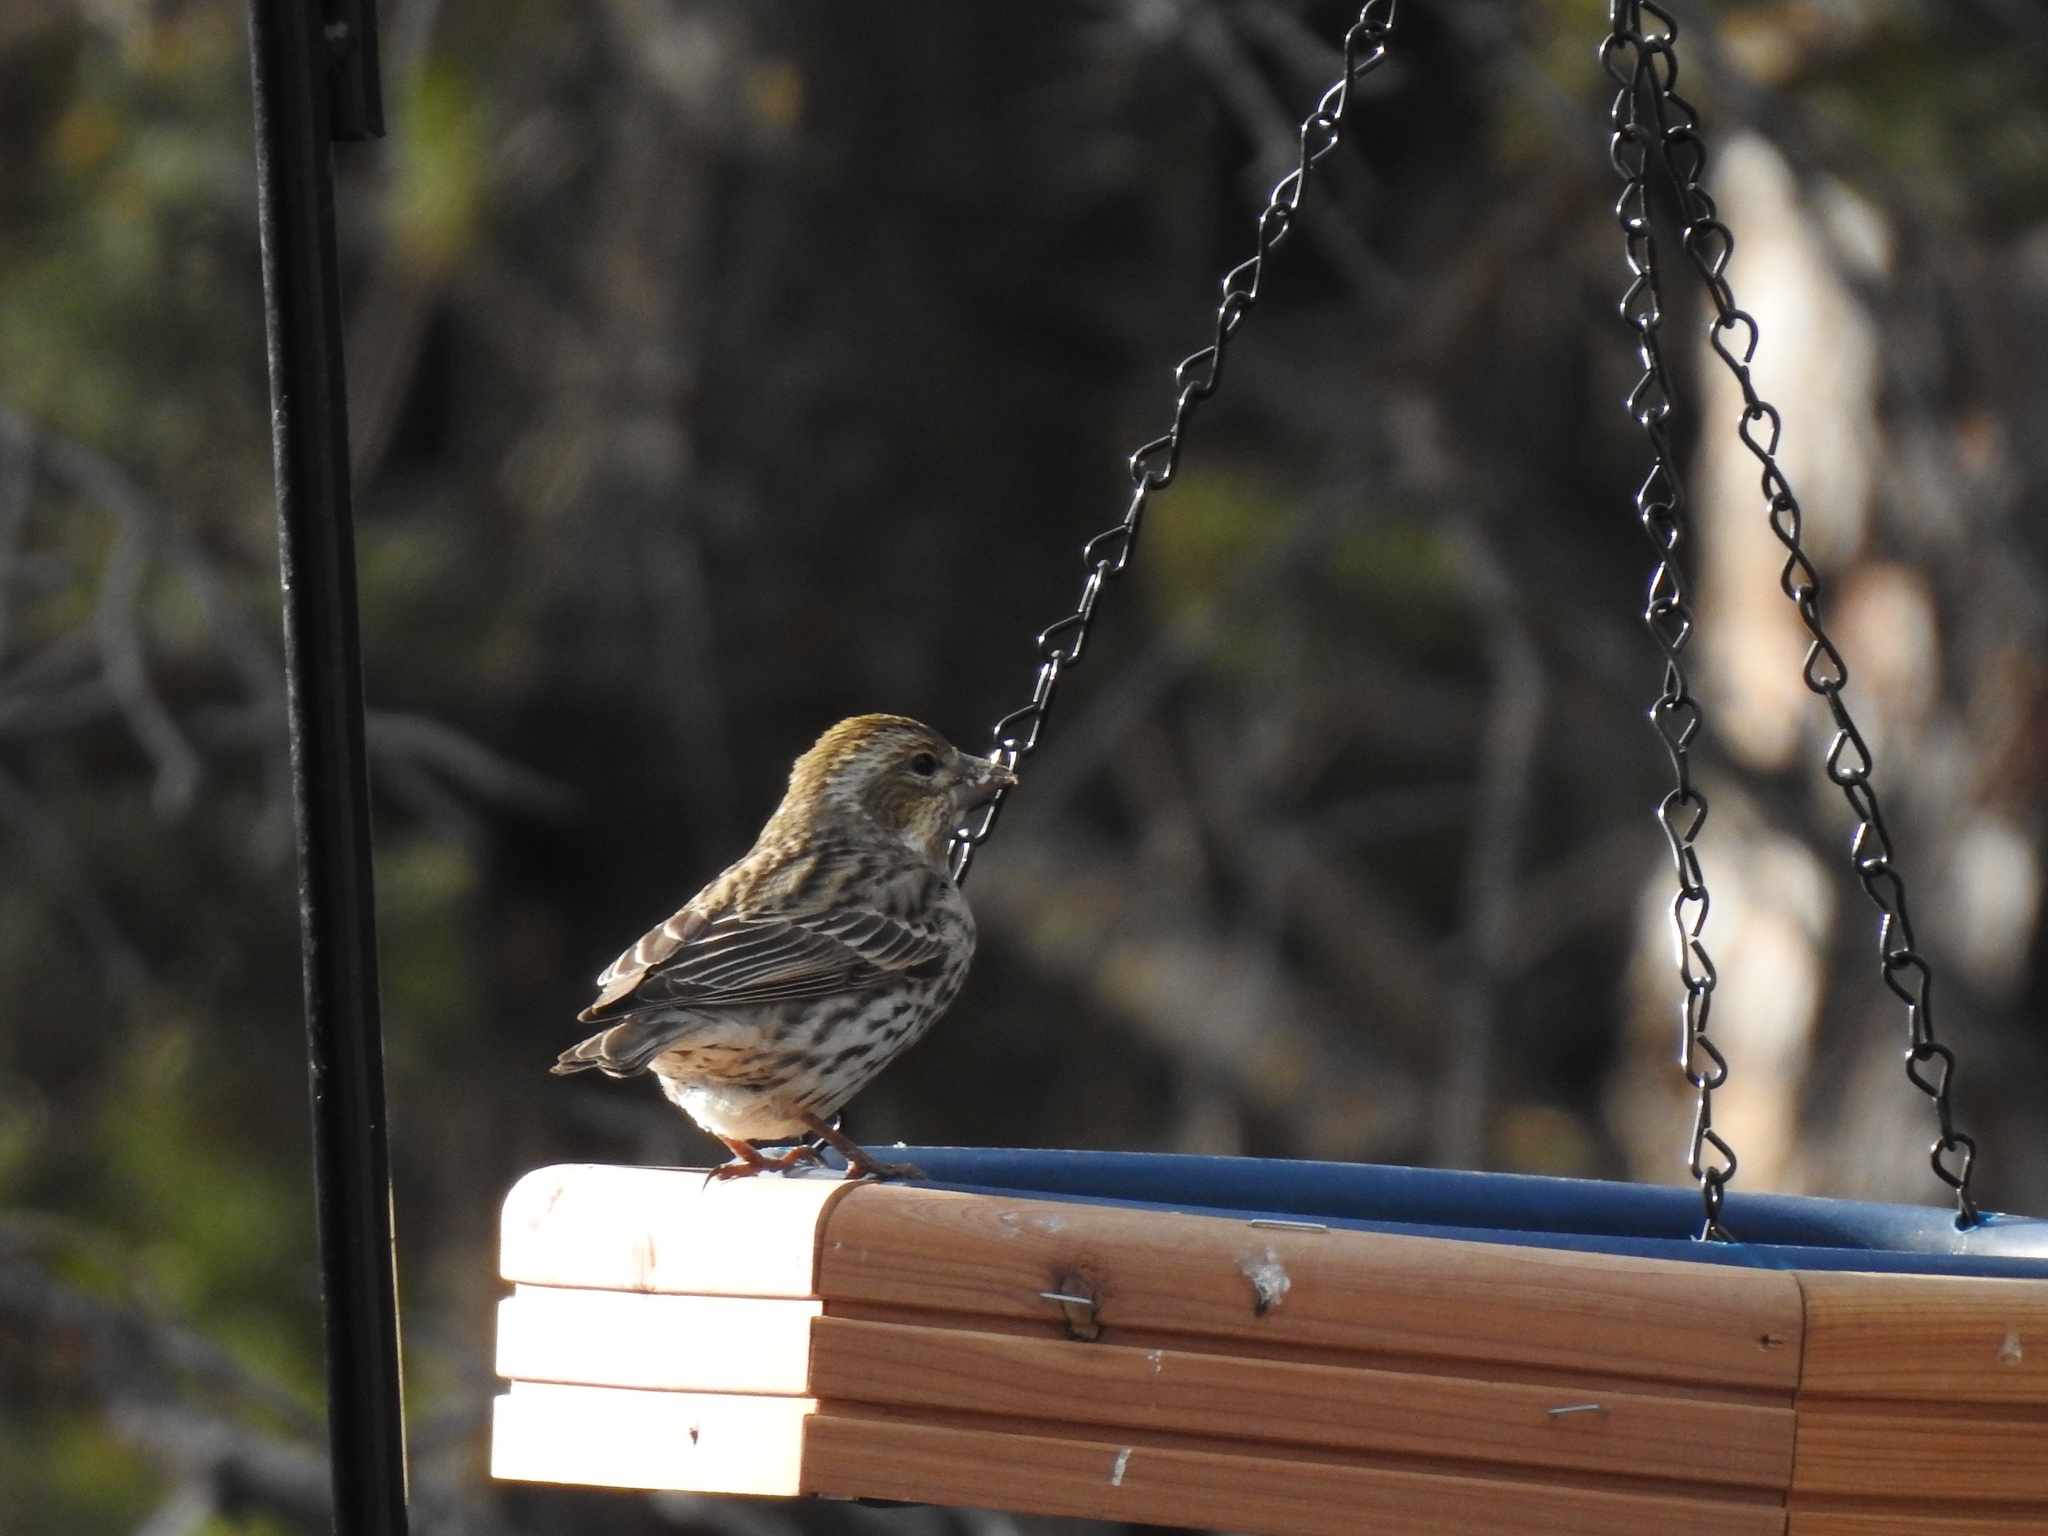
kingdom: Animalia
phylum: Chordata
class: Aves
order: Passeriformes
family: Fringillidae
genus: Haemorhous
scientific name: Haemorhous cassinii
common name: Cassin's finch
